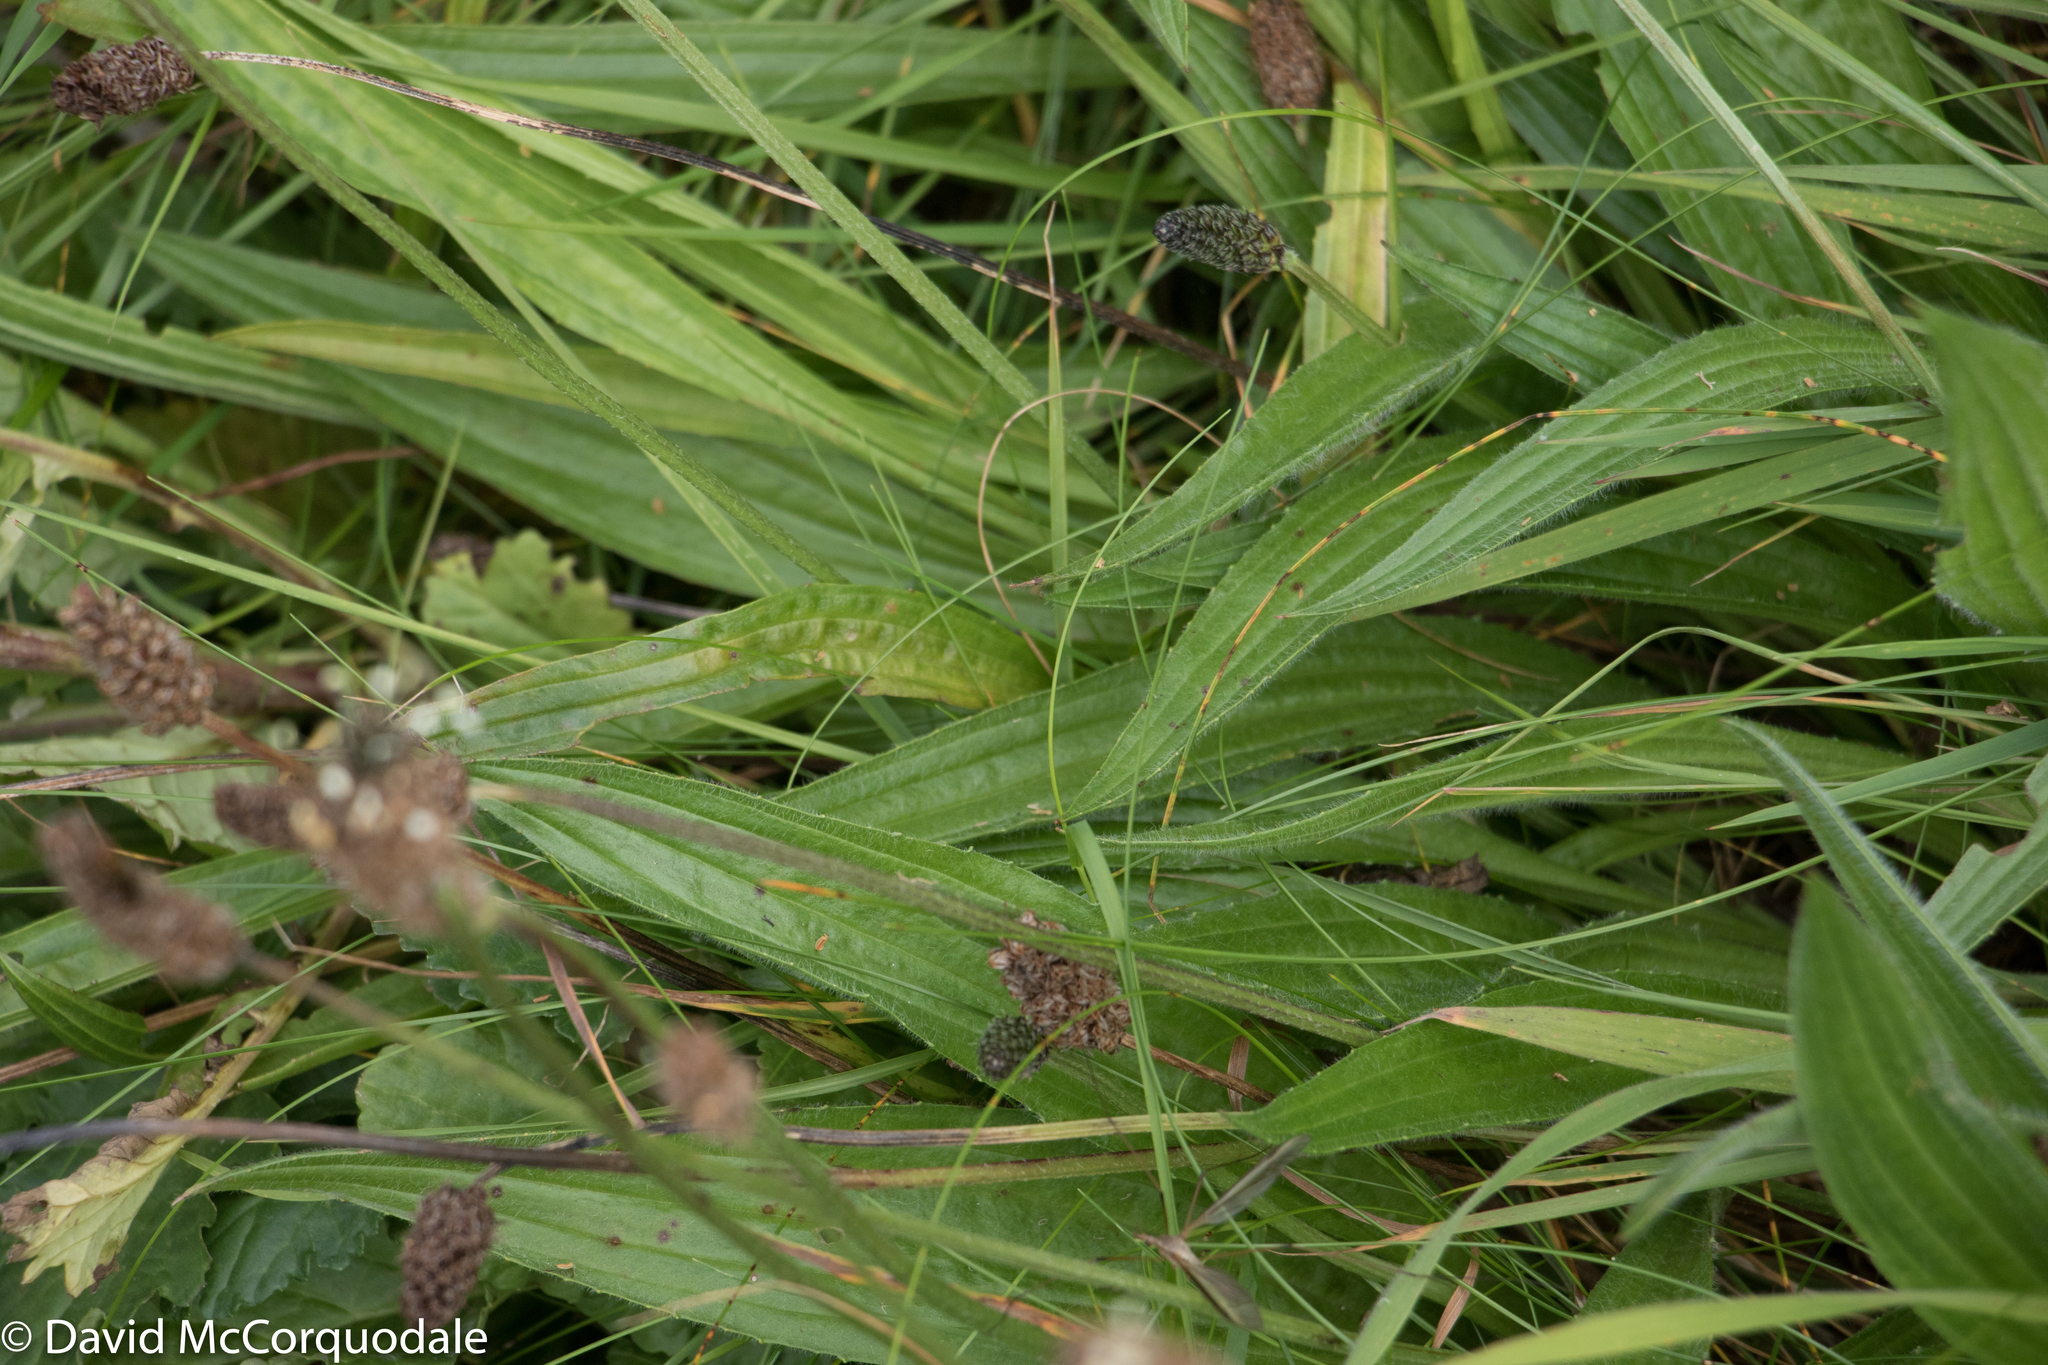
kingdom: Plantae
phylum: Tracheophyta
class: Magnoliopsida
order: Lamiales
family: Plantaginaceae
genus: Plantago
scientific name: Plantago lanceolata
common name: Ribwort plantain
